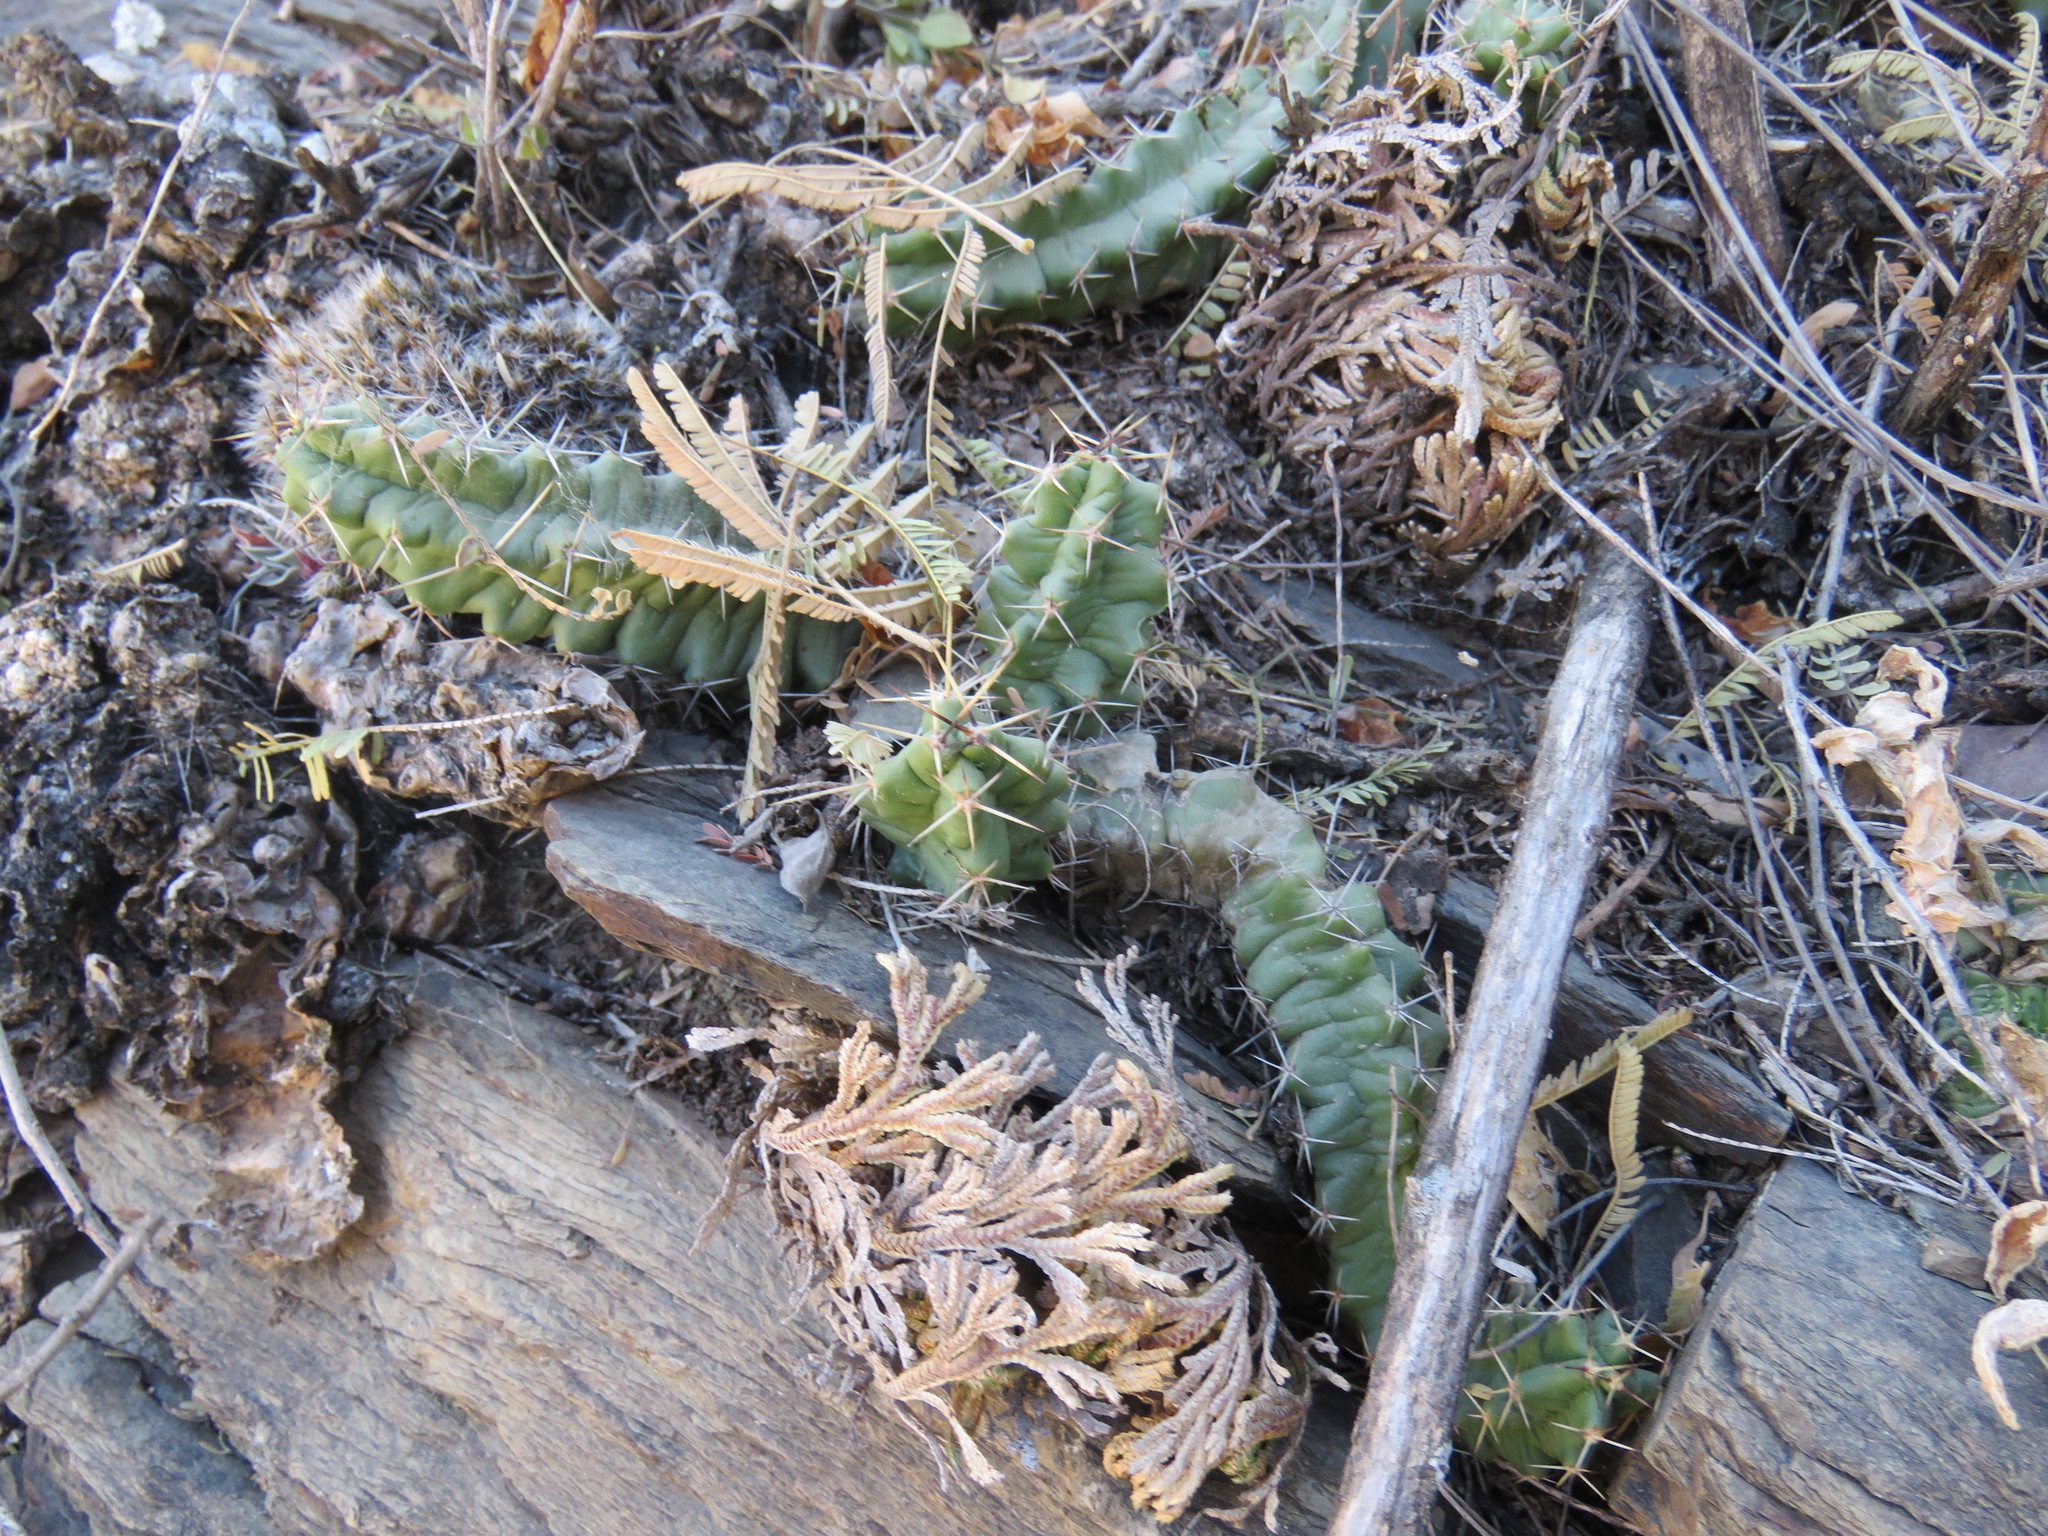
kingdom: Plantae
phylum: Tracheophyta
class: Magnoliopsida
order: Caryophyllales
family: Cactaceae
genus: Echinocereus
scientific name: Echinocereus pentalophus
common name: Ladyfinger cactus
